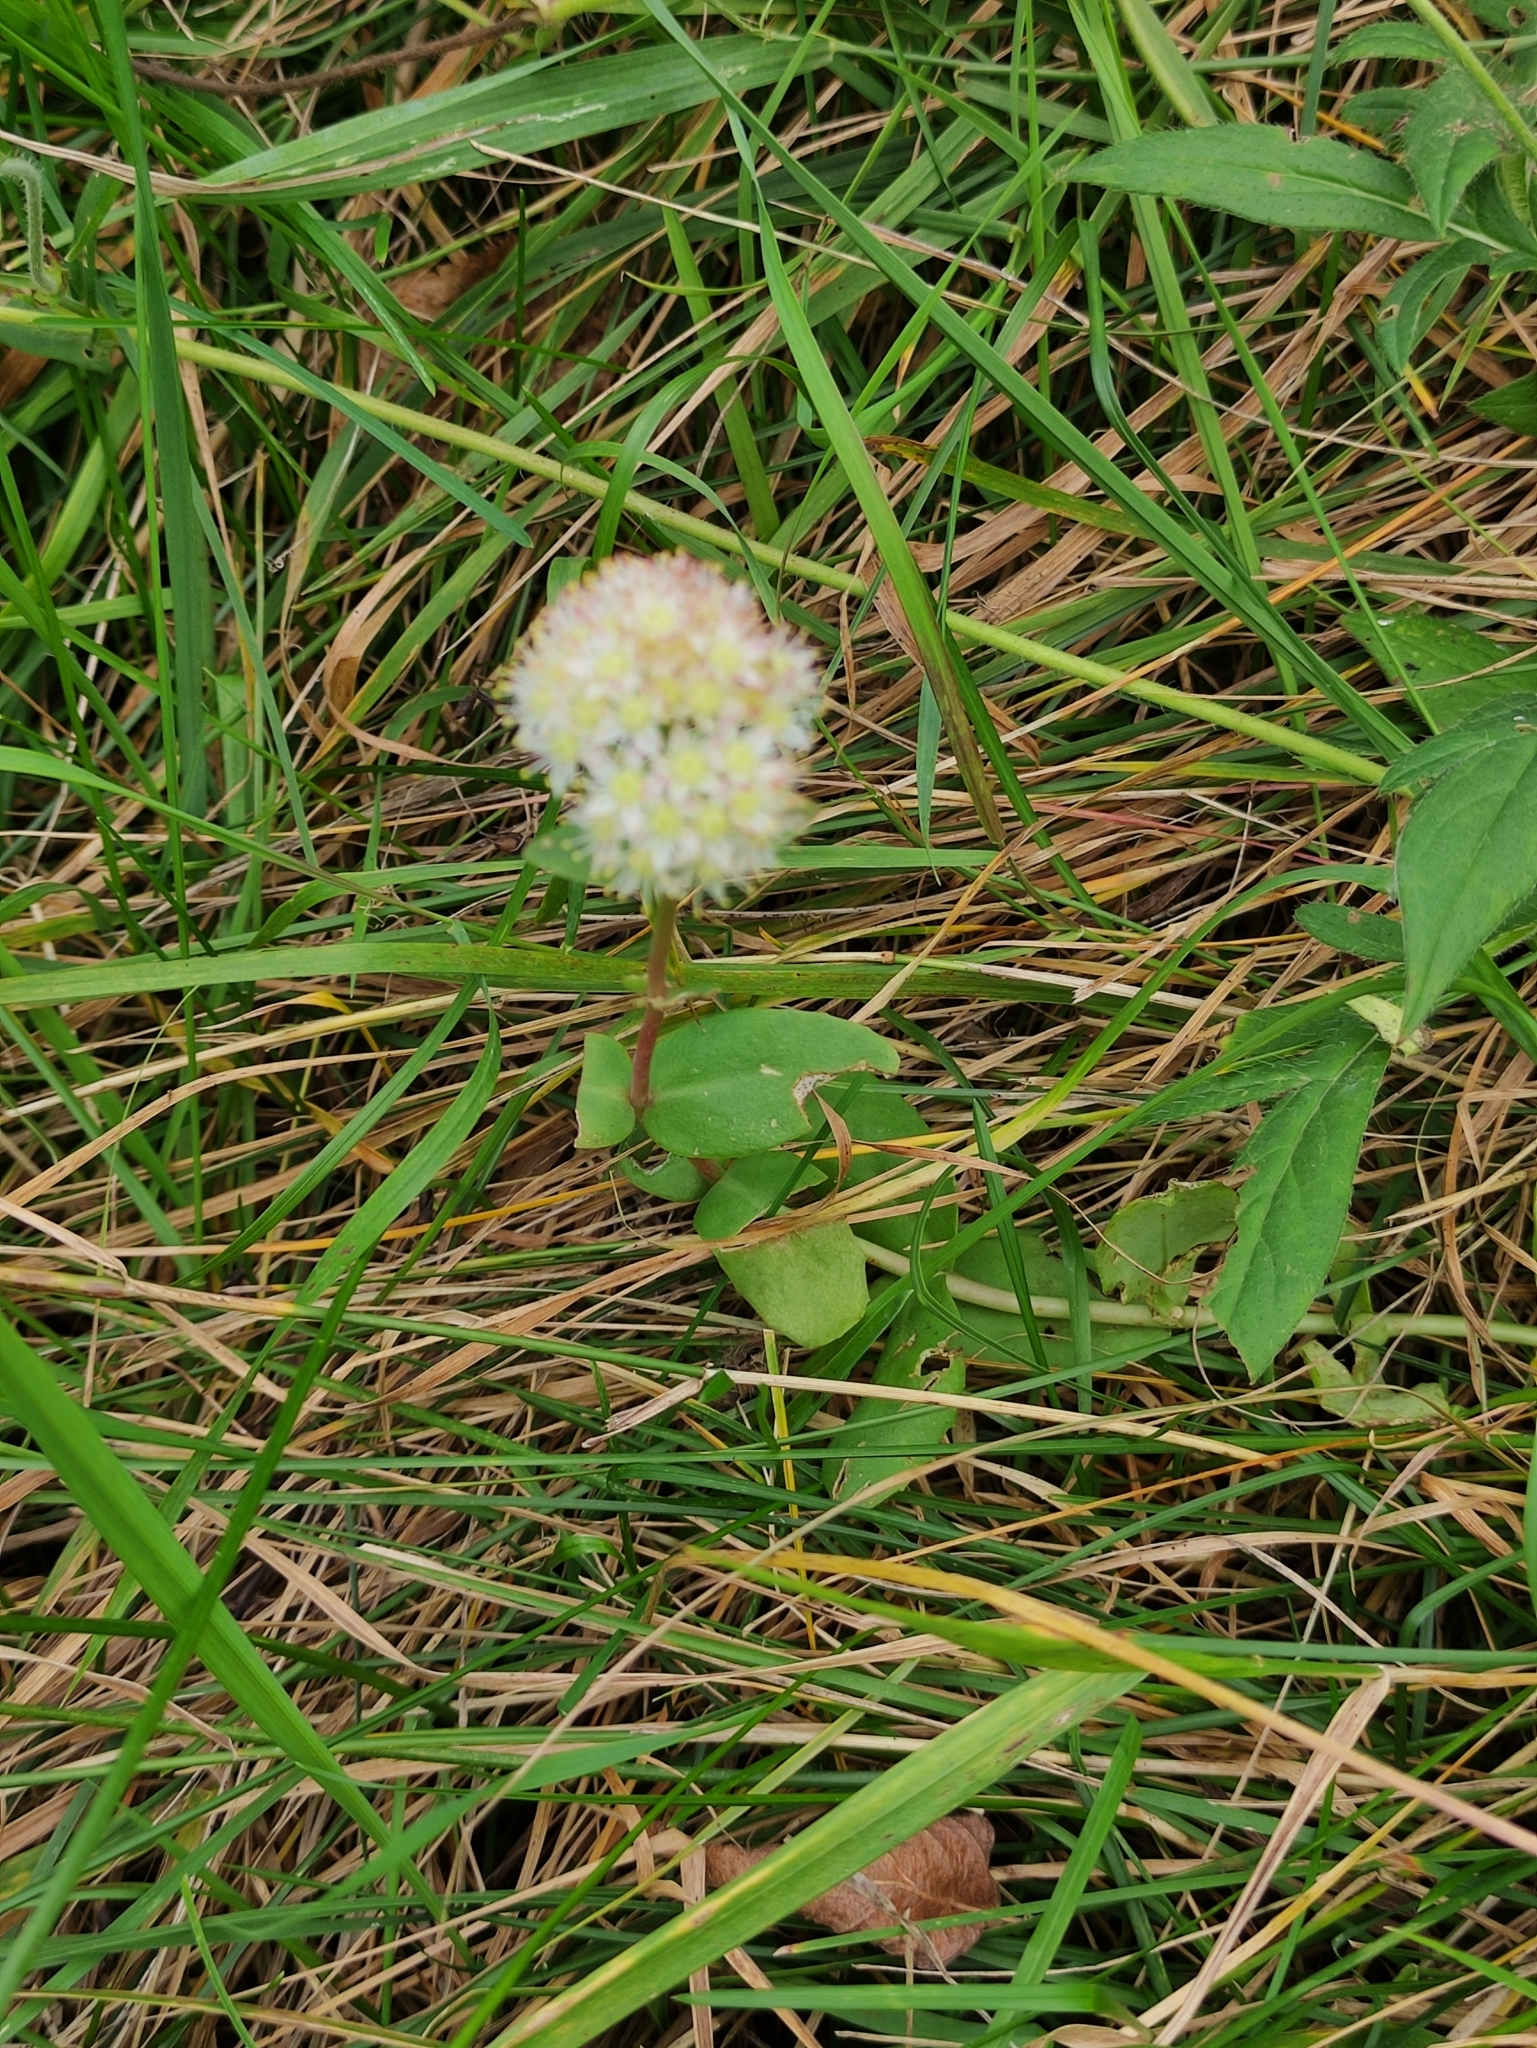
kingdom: Plantae
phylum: Tracheophyta
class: Magnoliopsida
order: Saxifragales
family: Crassulaceae
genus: Hylotelephium
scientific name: Hylotelephium maximum
